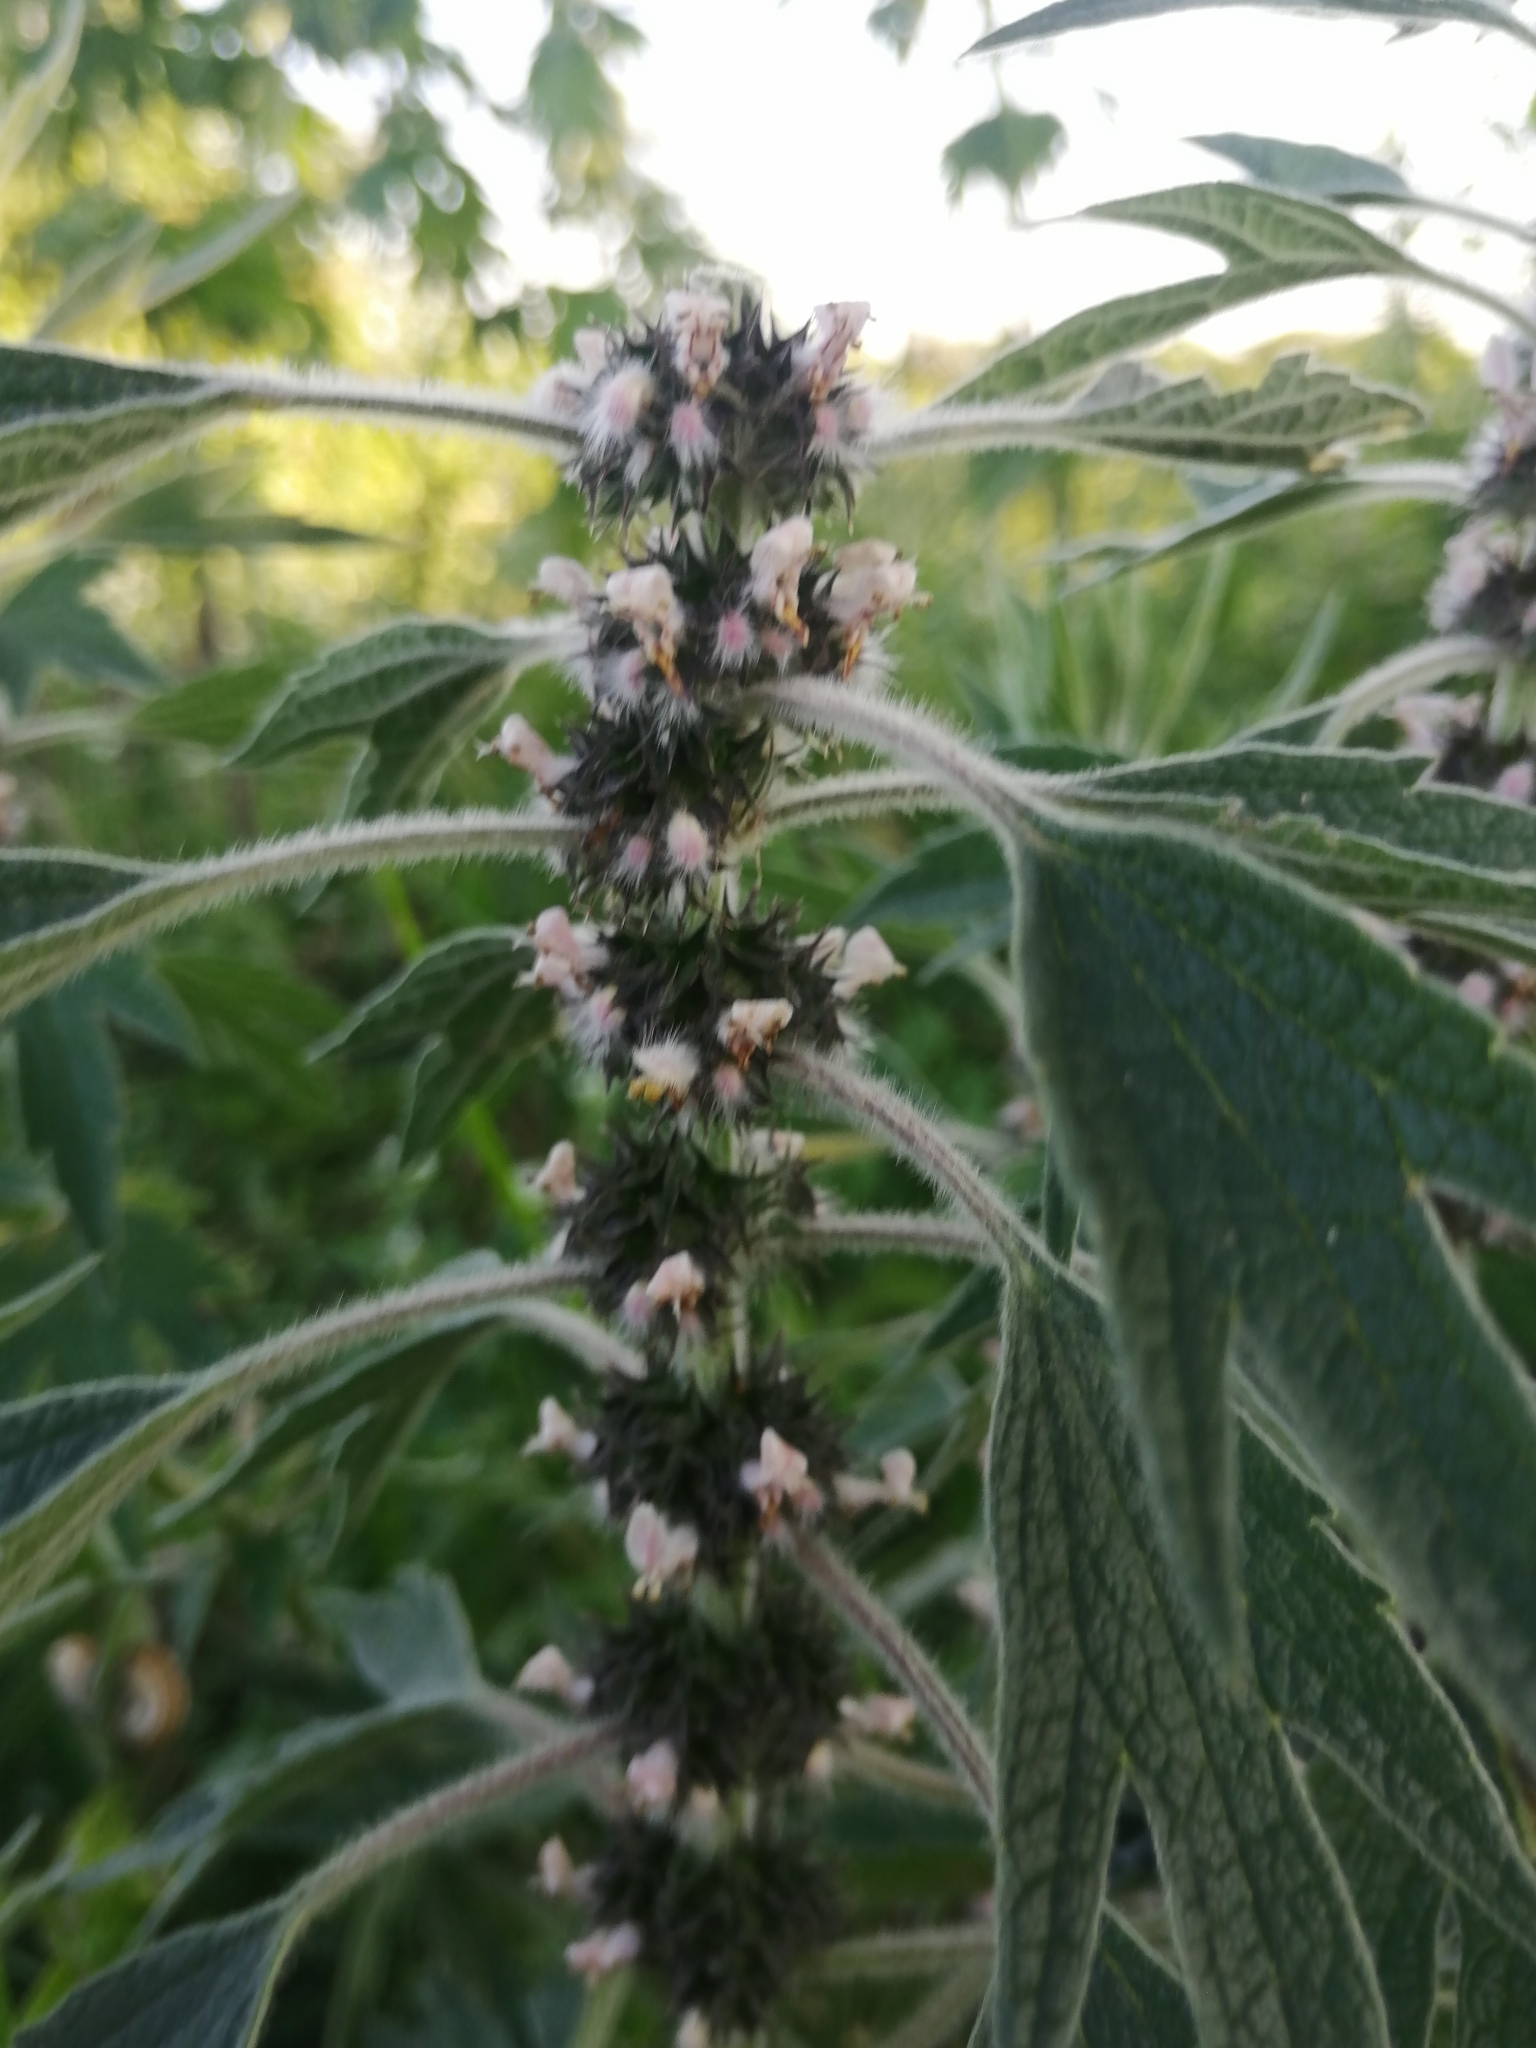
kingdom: Plantae
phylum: Tracheophyta
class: Magnoliopsida
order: Lamiales
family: Lamiaceae
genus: Leonurus
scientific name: Leonurus quinquelobatus
